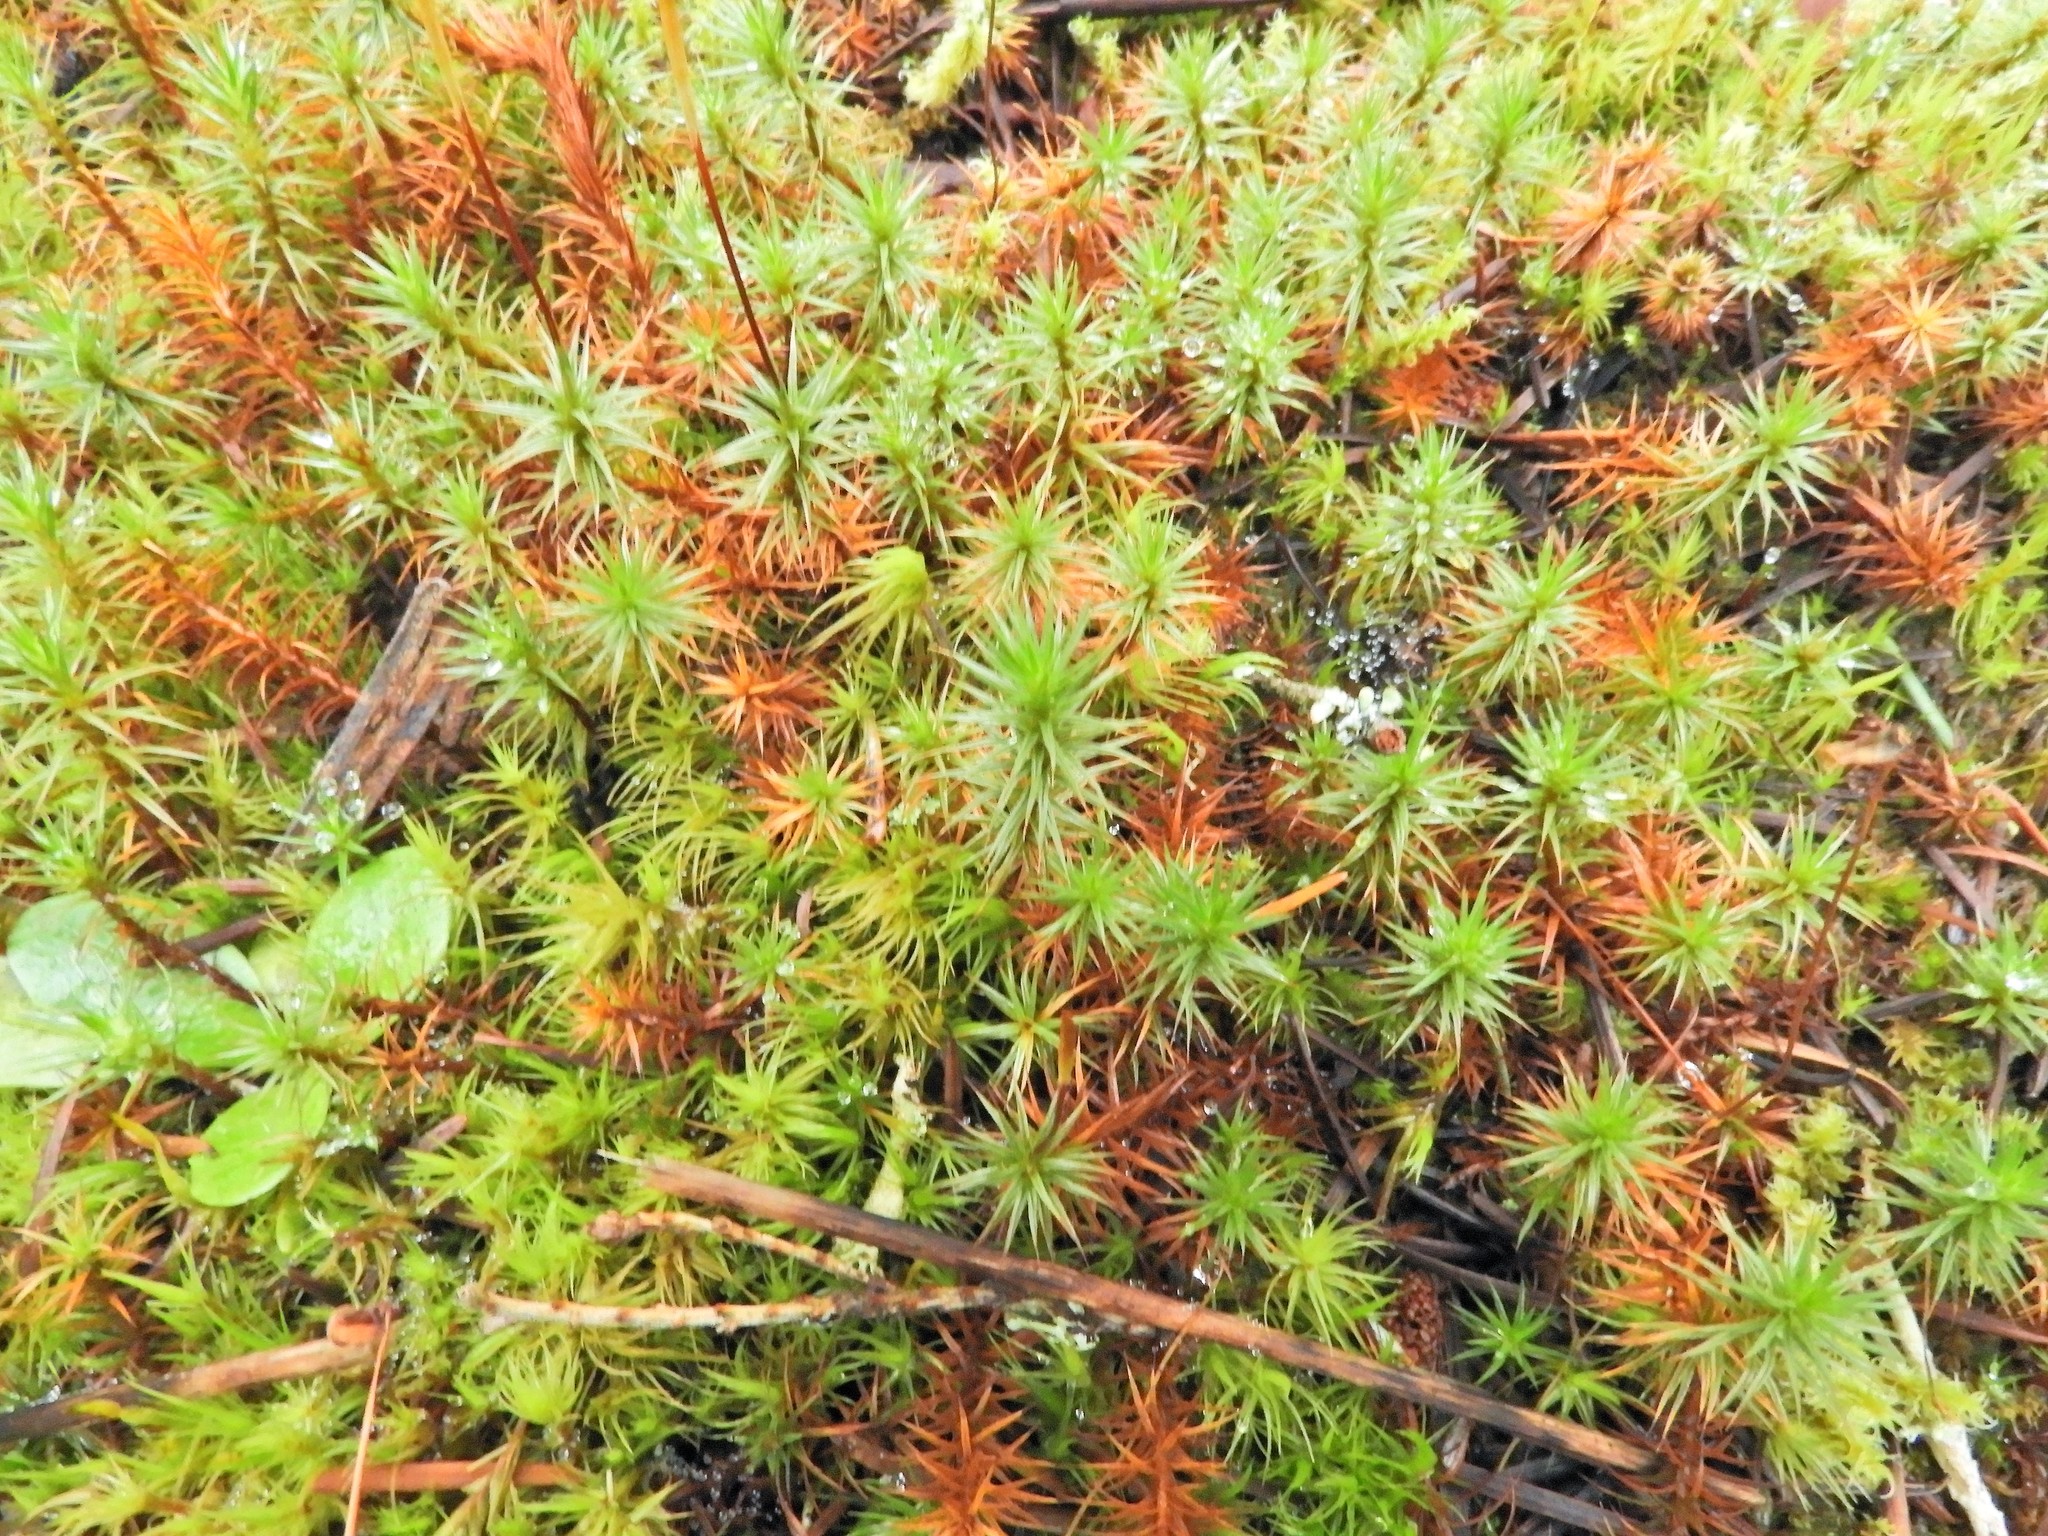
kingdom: Plantae
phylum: Bryophyta
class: Polytrichopsida
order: Polytrichales
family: Polytrichaceae
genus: Polytrichum
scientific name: Polytrichum juniperinum
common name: Juniper haircap moss
